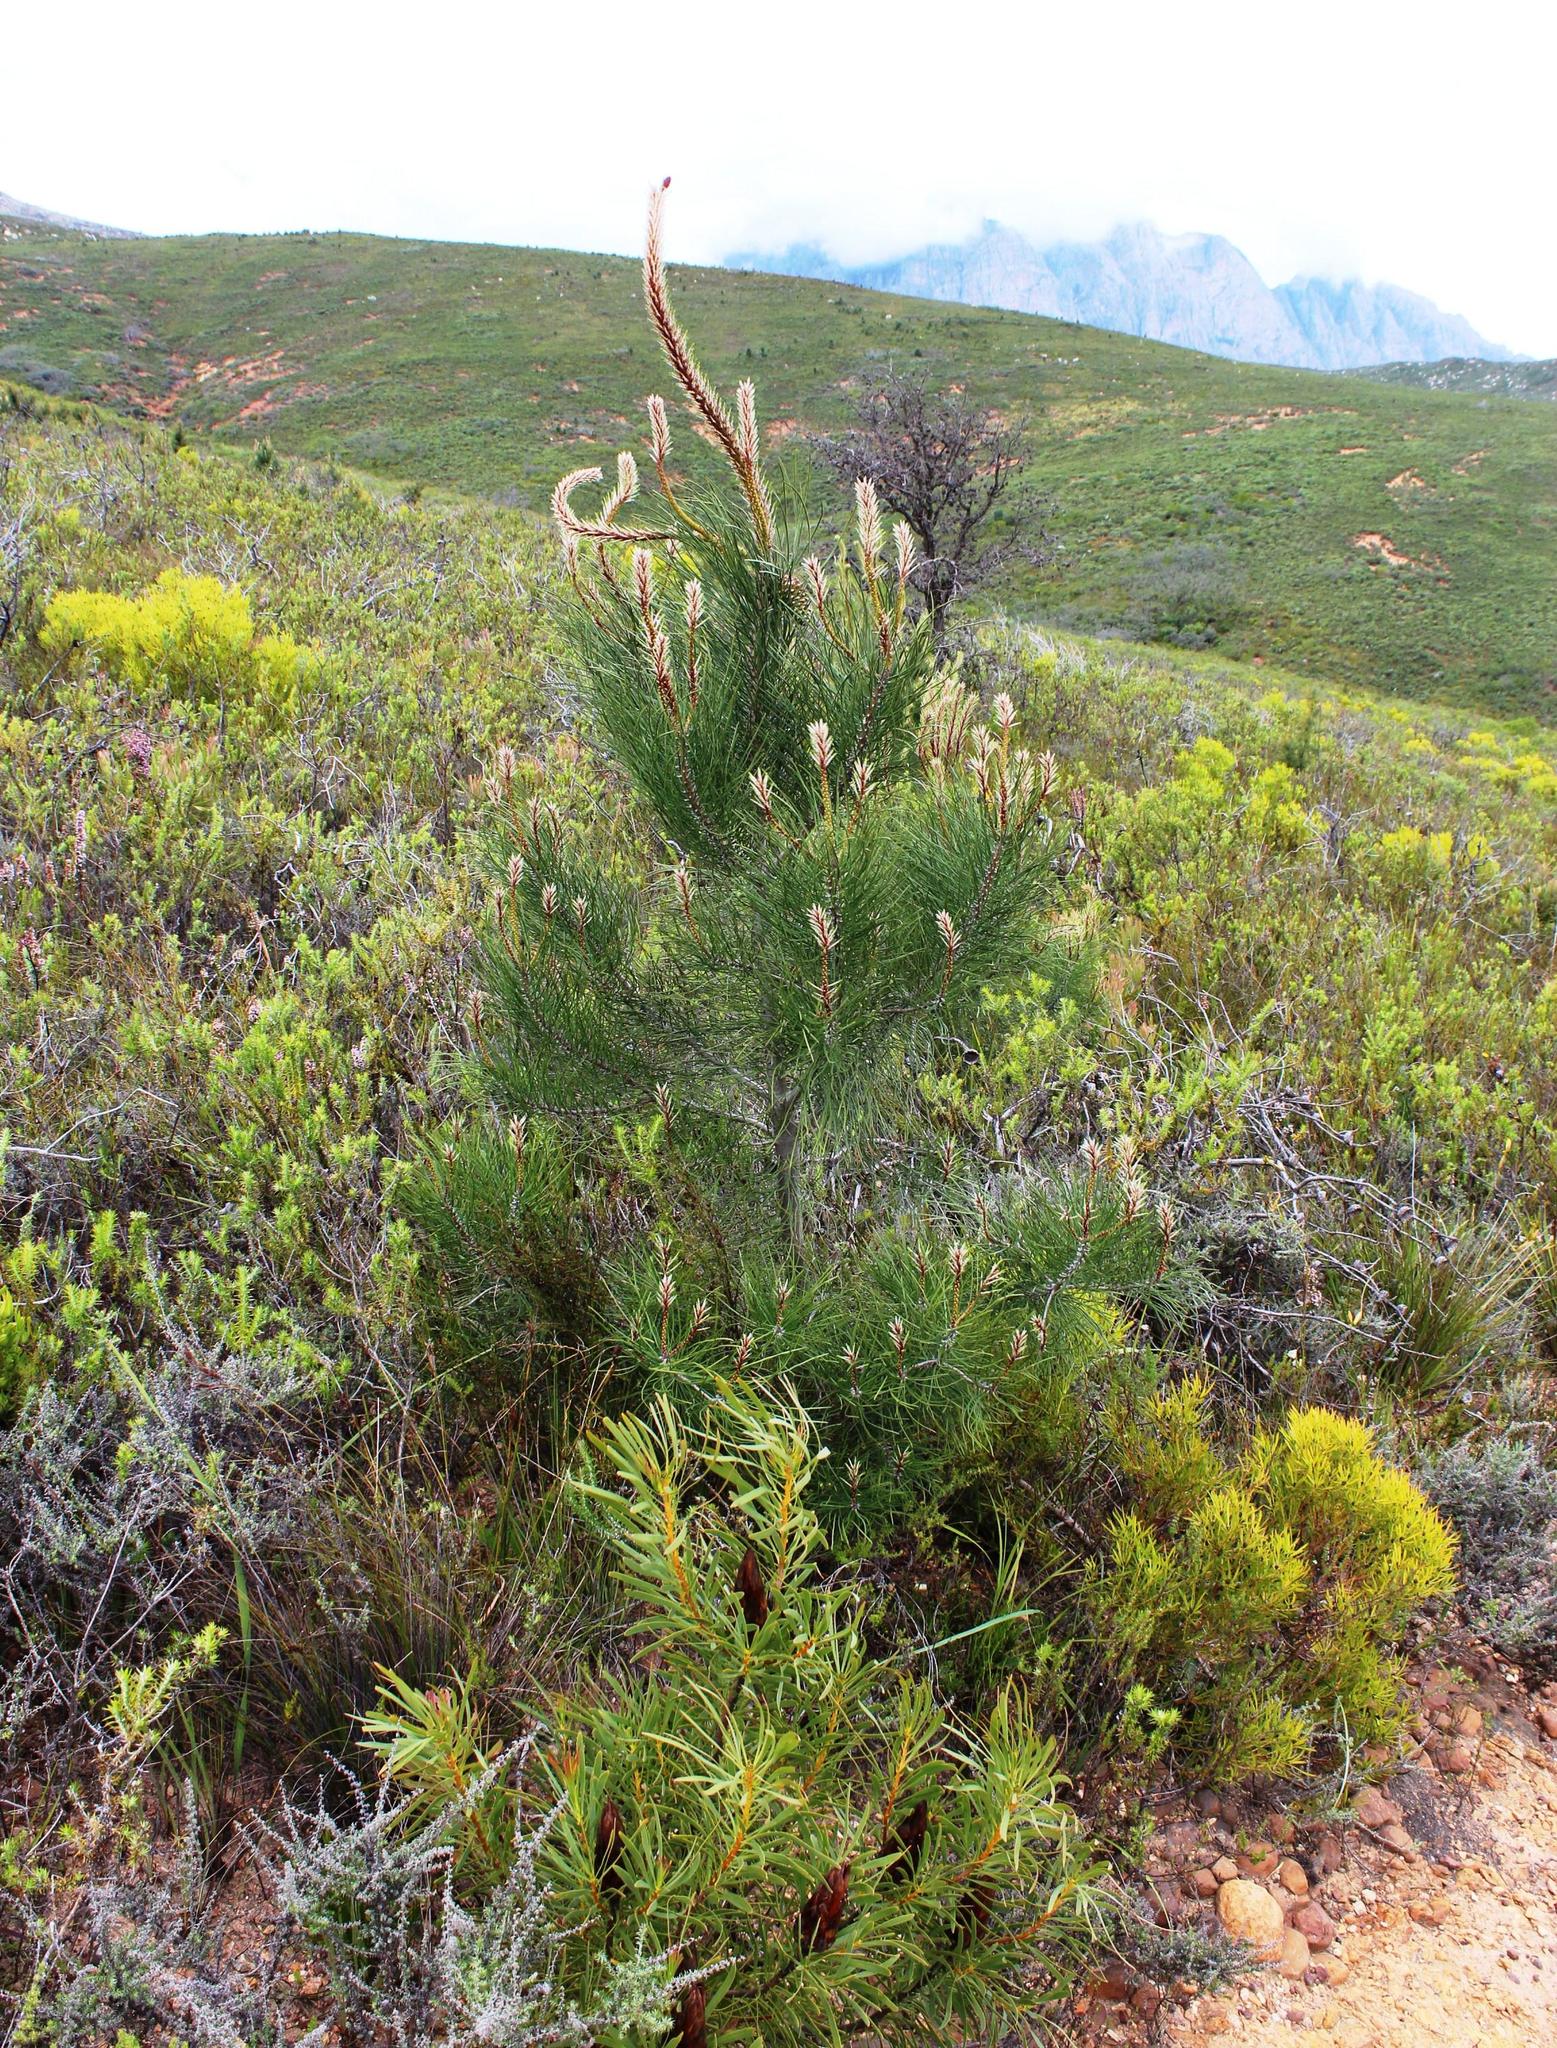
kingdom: Plantae
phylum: Tracheophyta
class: Pinopsida
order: Pinales
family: Pinaceae
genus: Pinus
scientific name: Pinus pinaster
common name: Maritime pine
